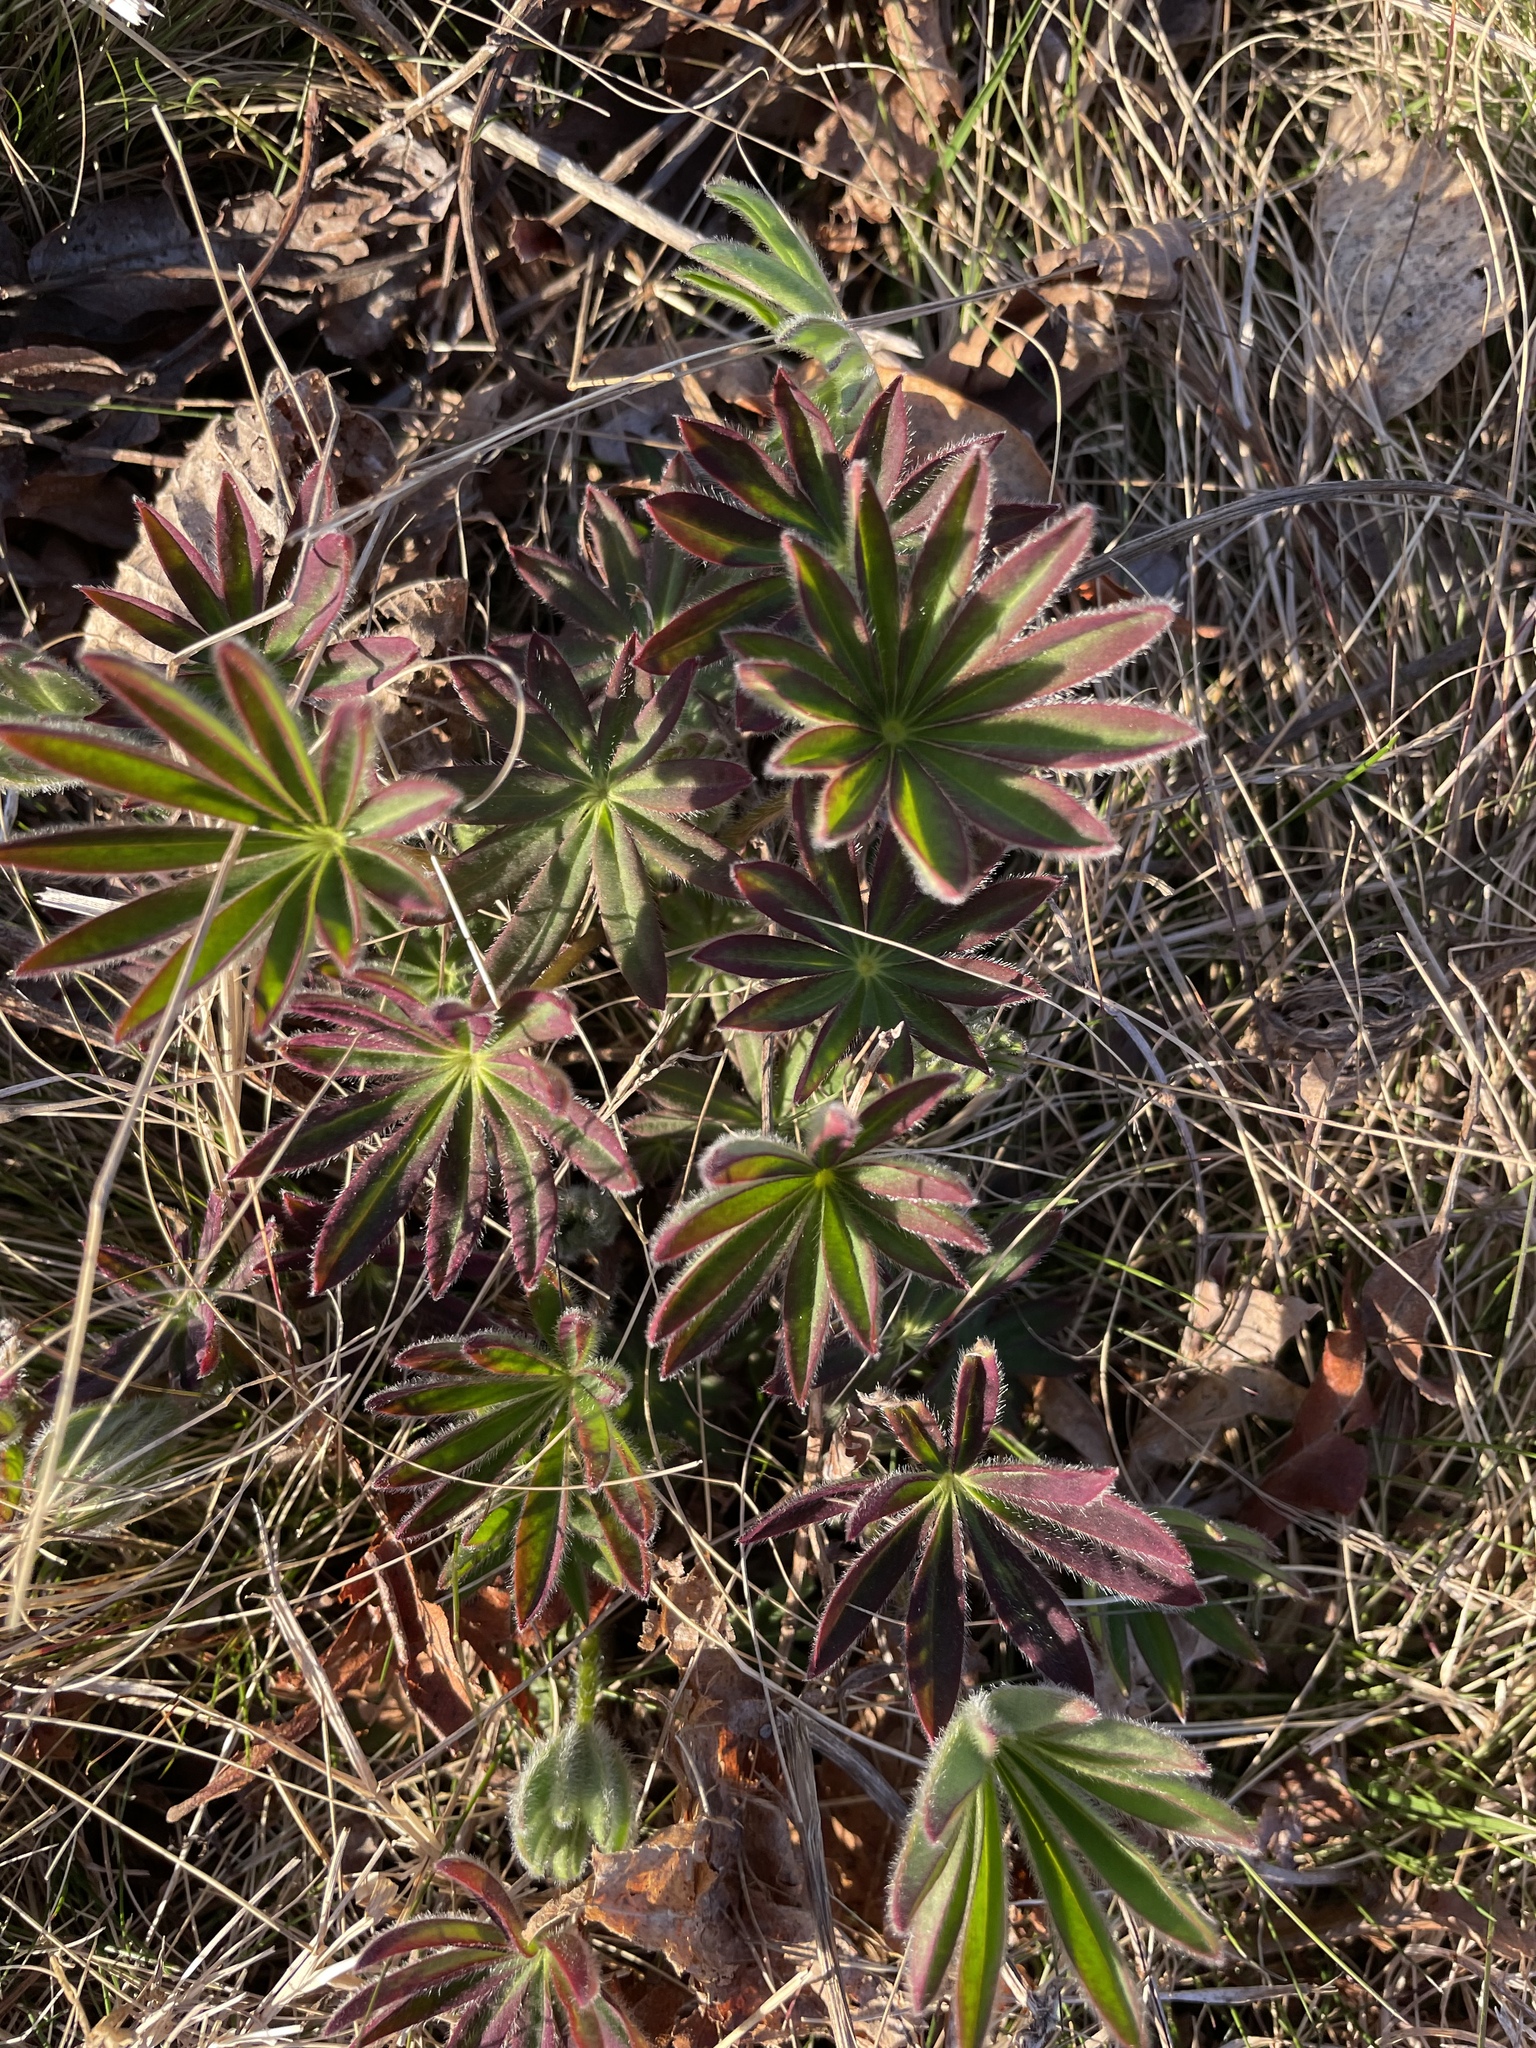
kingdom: Plantae
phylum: Tracheophyta
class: Magnoliopsida
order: Fabales
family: Fabaceae
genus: Lupinus
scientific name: Lupinus polyphyllus
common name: Garden lupin
